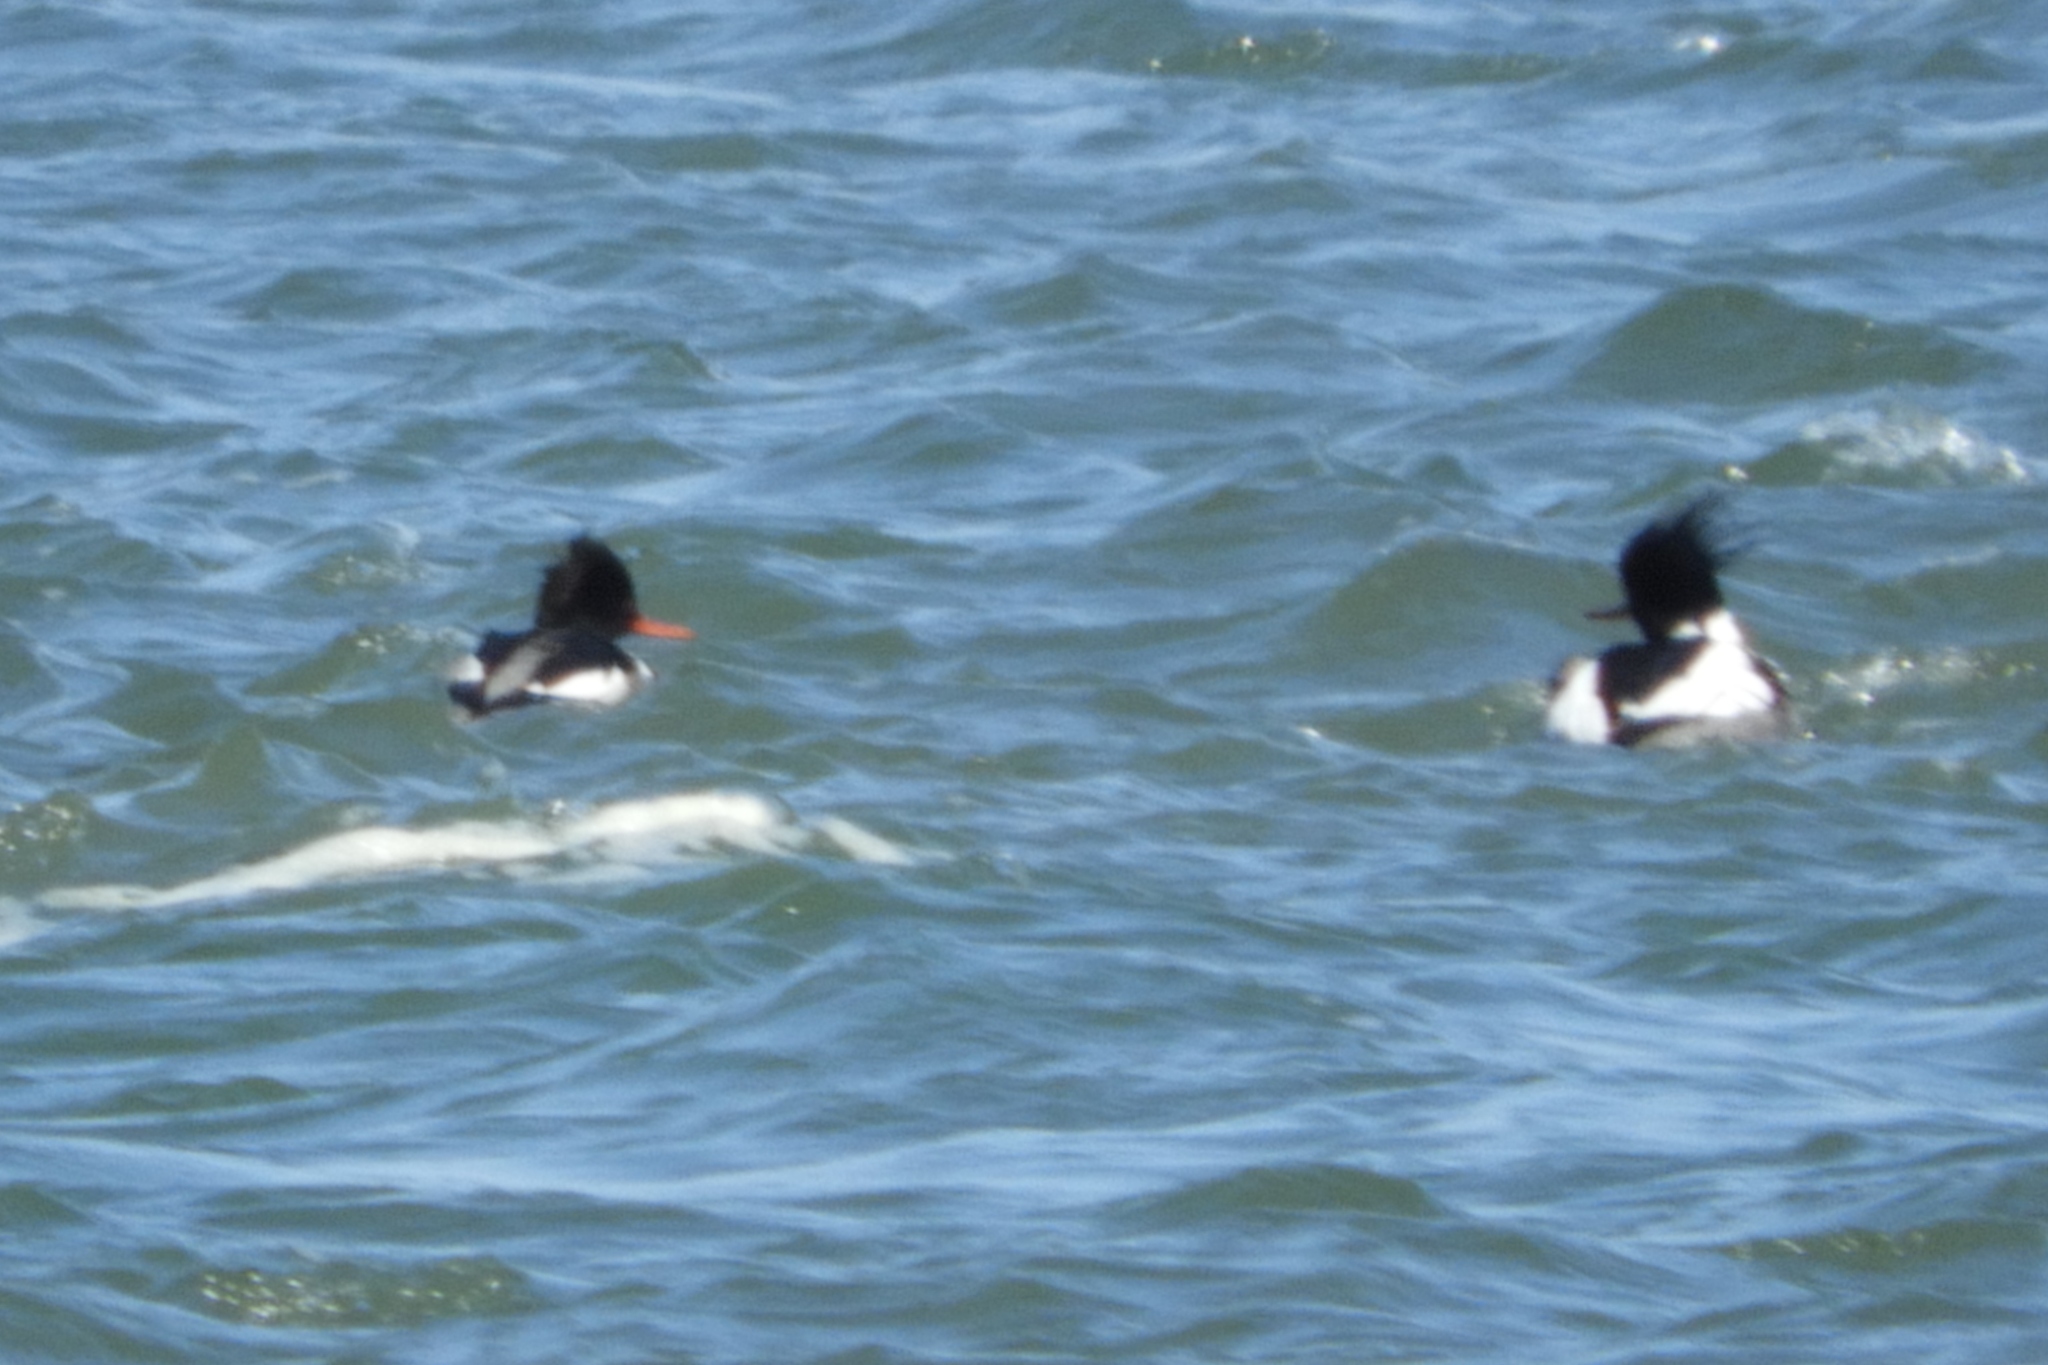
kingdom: Animalia
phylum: Chordata
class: Aves
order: Anseriformes
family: Anatidae
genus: Mergus
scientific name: Mergus serrator
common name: Red-breasted merganser
